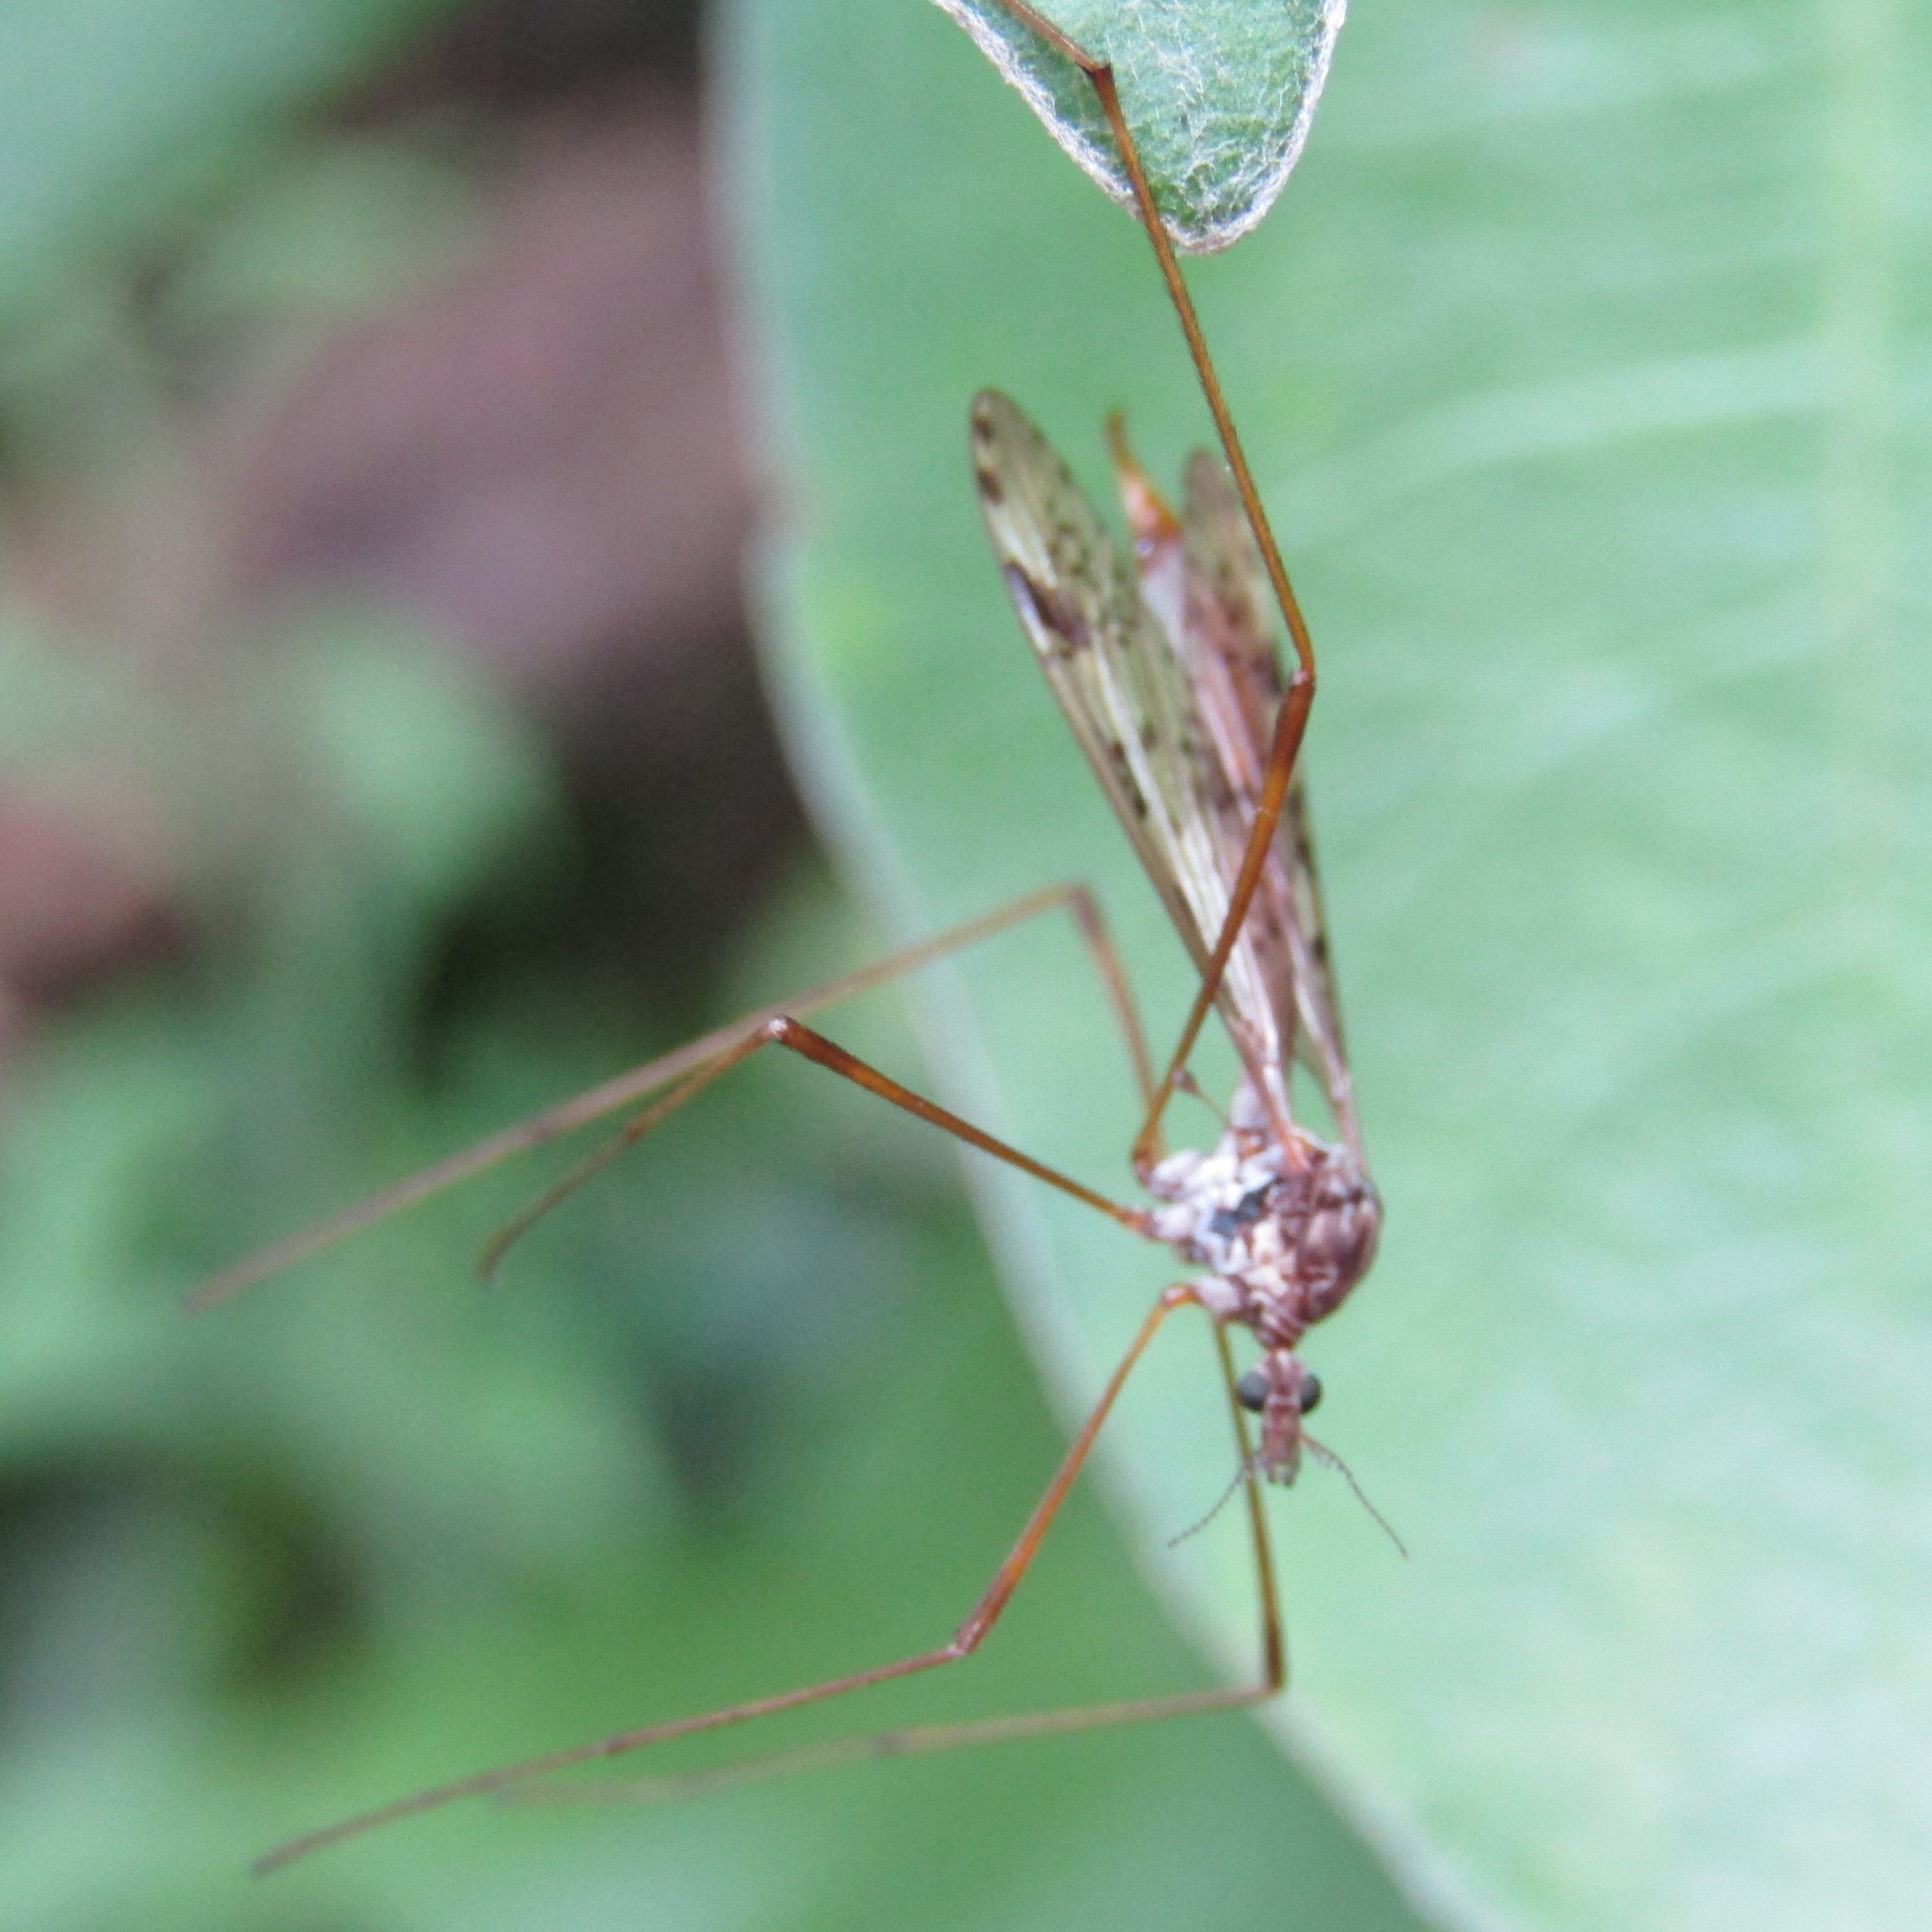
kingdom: Animalia
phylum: Arthropoda
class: Insecta
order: Diptera
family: Limoniidae
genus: Gynoplistia
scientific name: Gynoplistia notabilis
